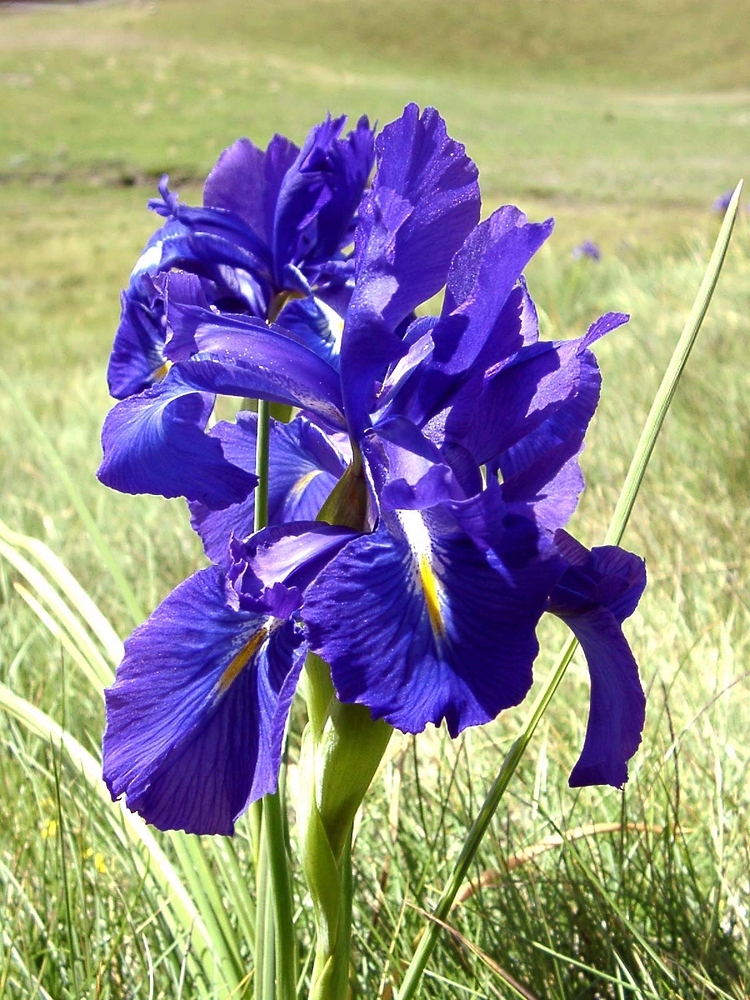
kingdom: Plantae
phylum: Tracheophyta
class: Liliopsida
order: Asparagales
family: Iridaceae
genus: Iris
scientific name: Iris
